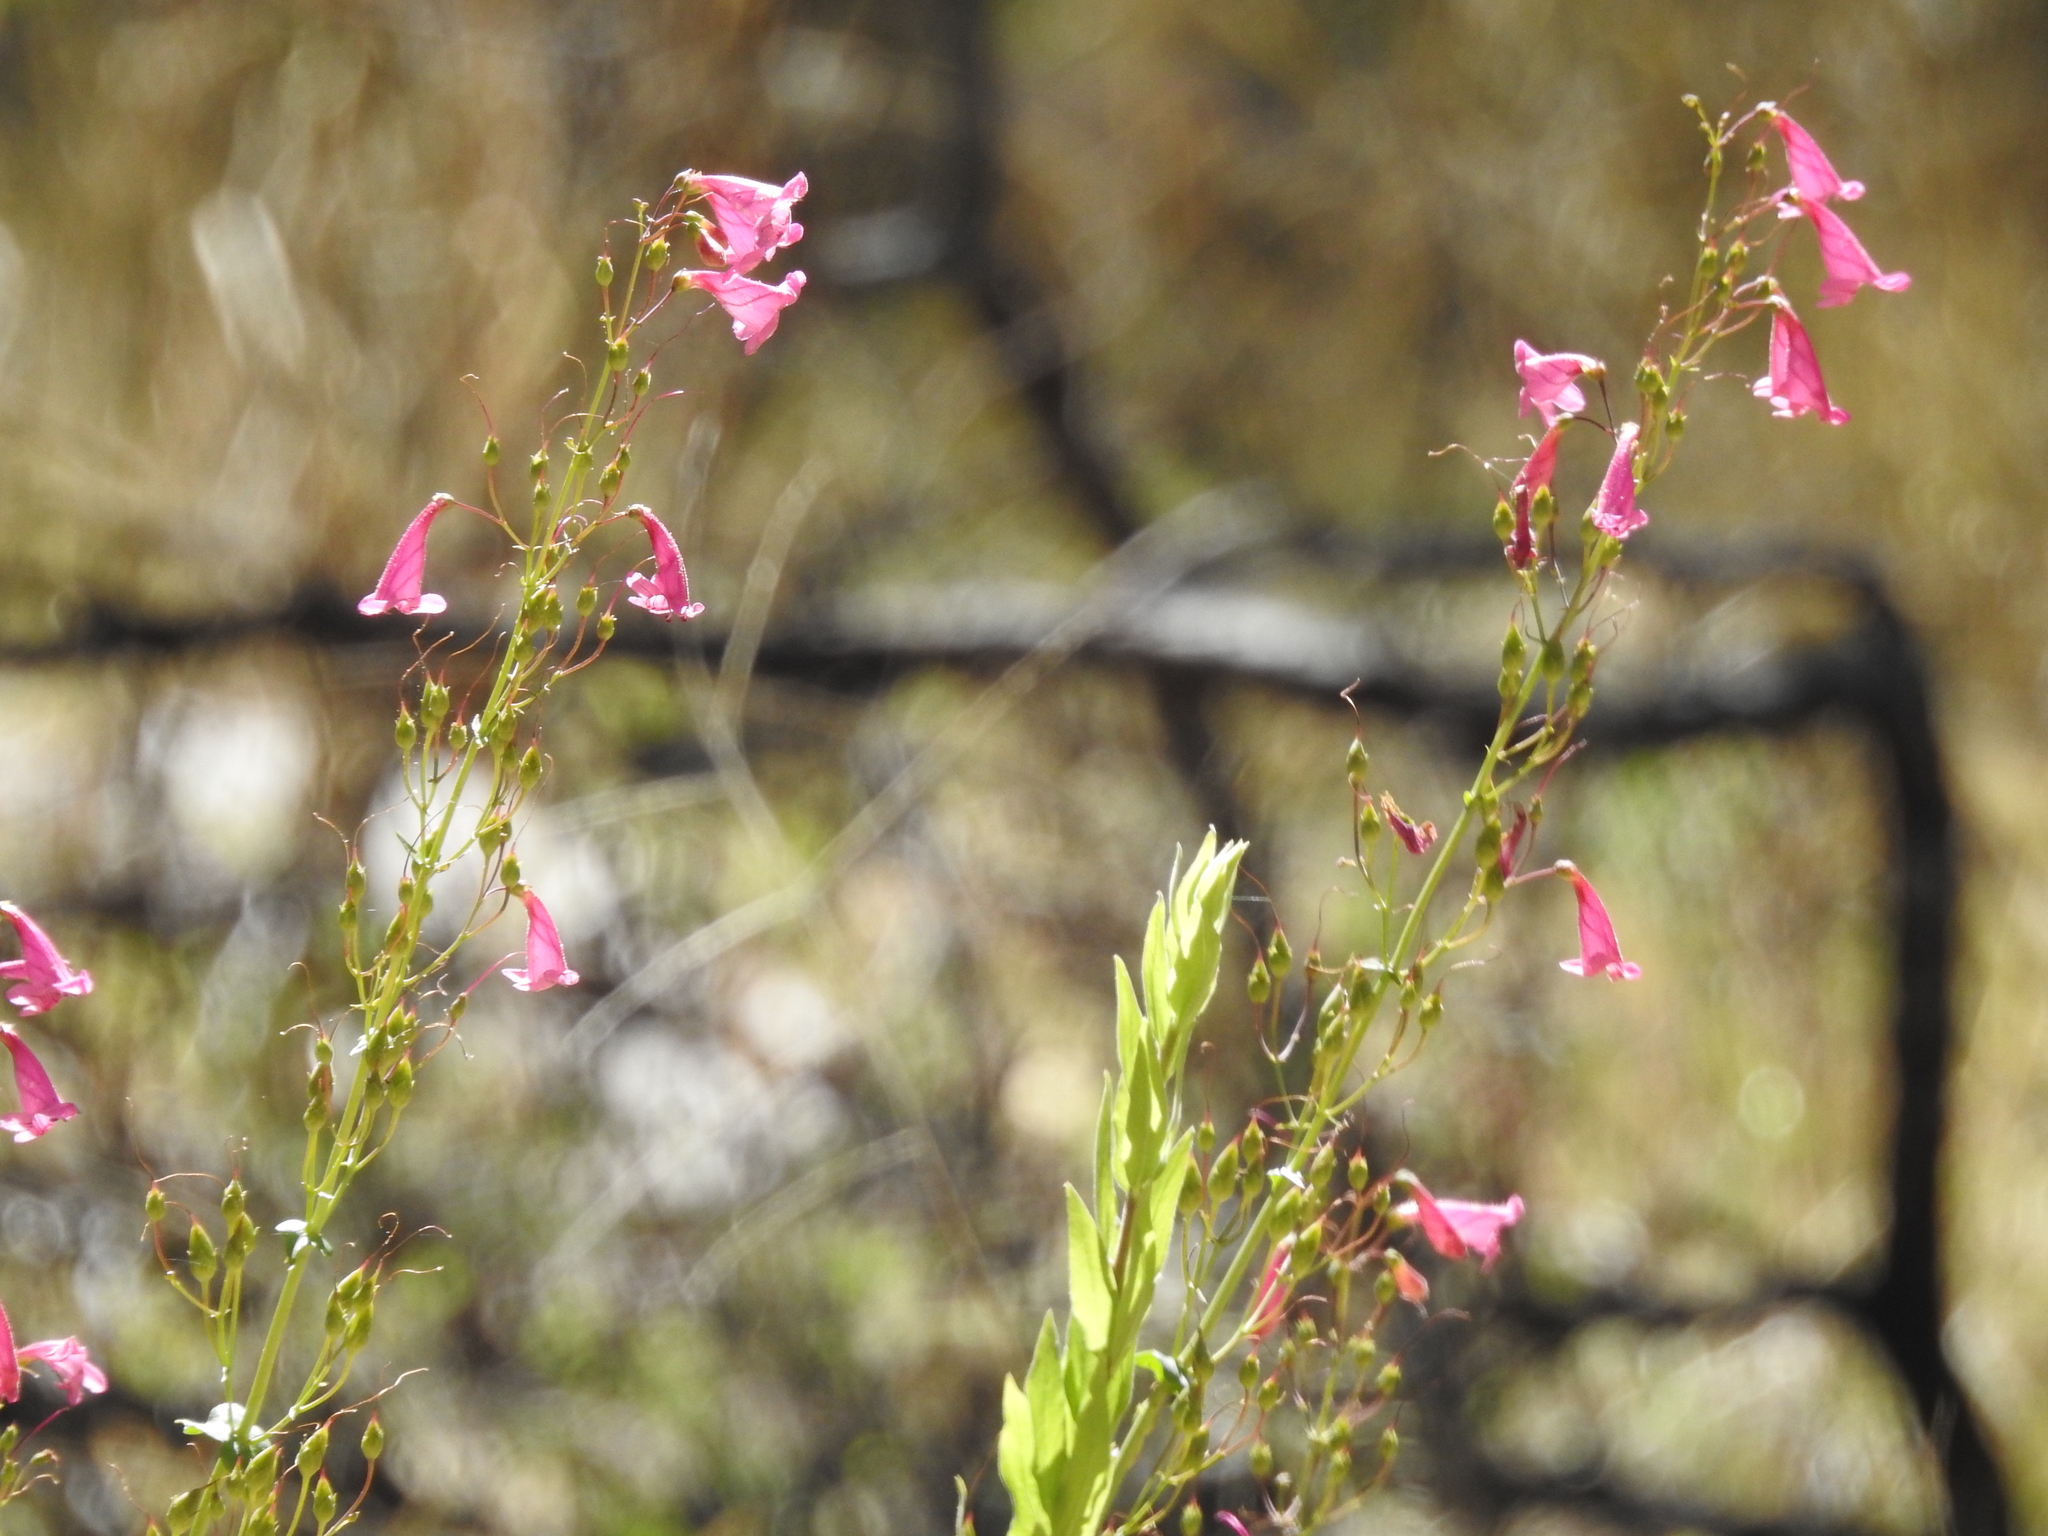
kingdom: Plantae
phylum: Tracheophyta
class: Magnoliopsida
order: Lamiales
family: Plantaginaceae
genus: Penstemon
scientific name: Penstemon pseudospectabilis
